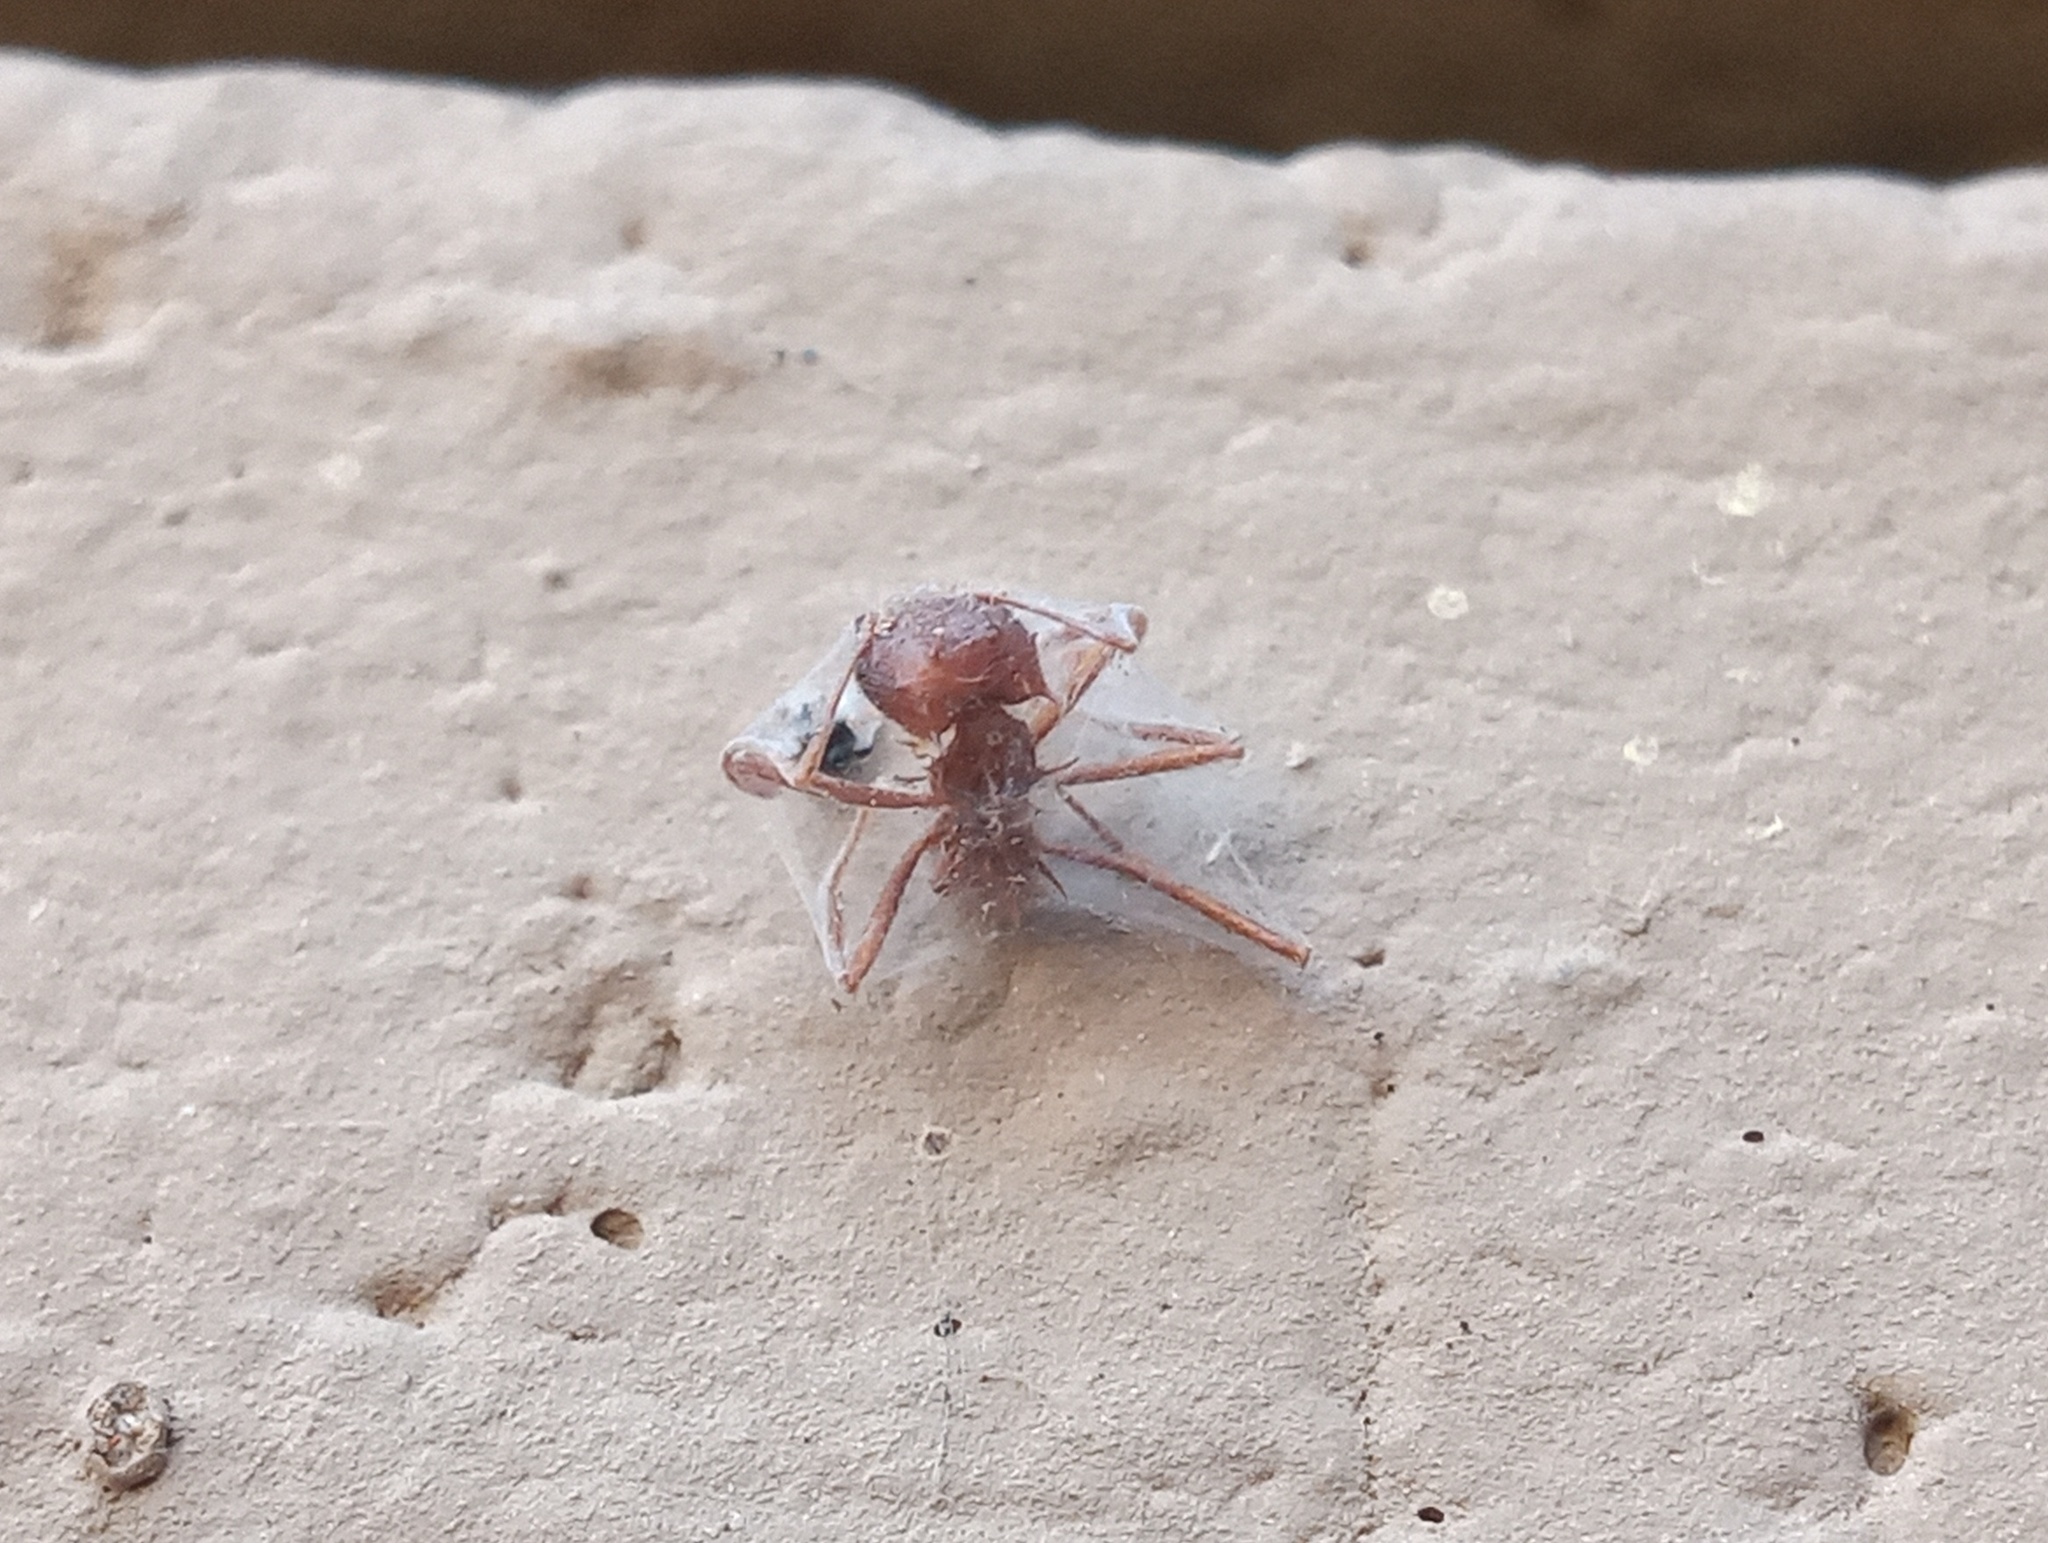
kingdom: Animalia
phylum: Arthropoda
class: Insecta
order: Hymenoptera
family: Formicidae
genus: Atta
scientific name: Atta mexicana
